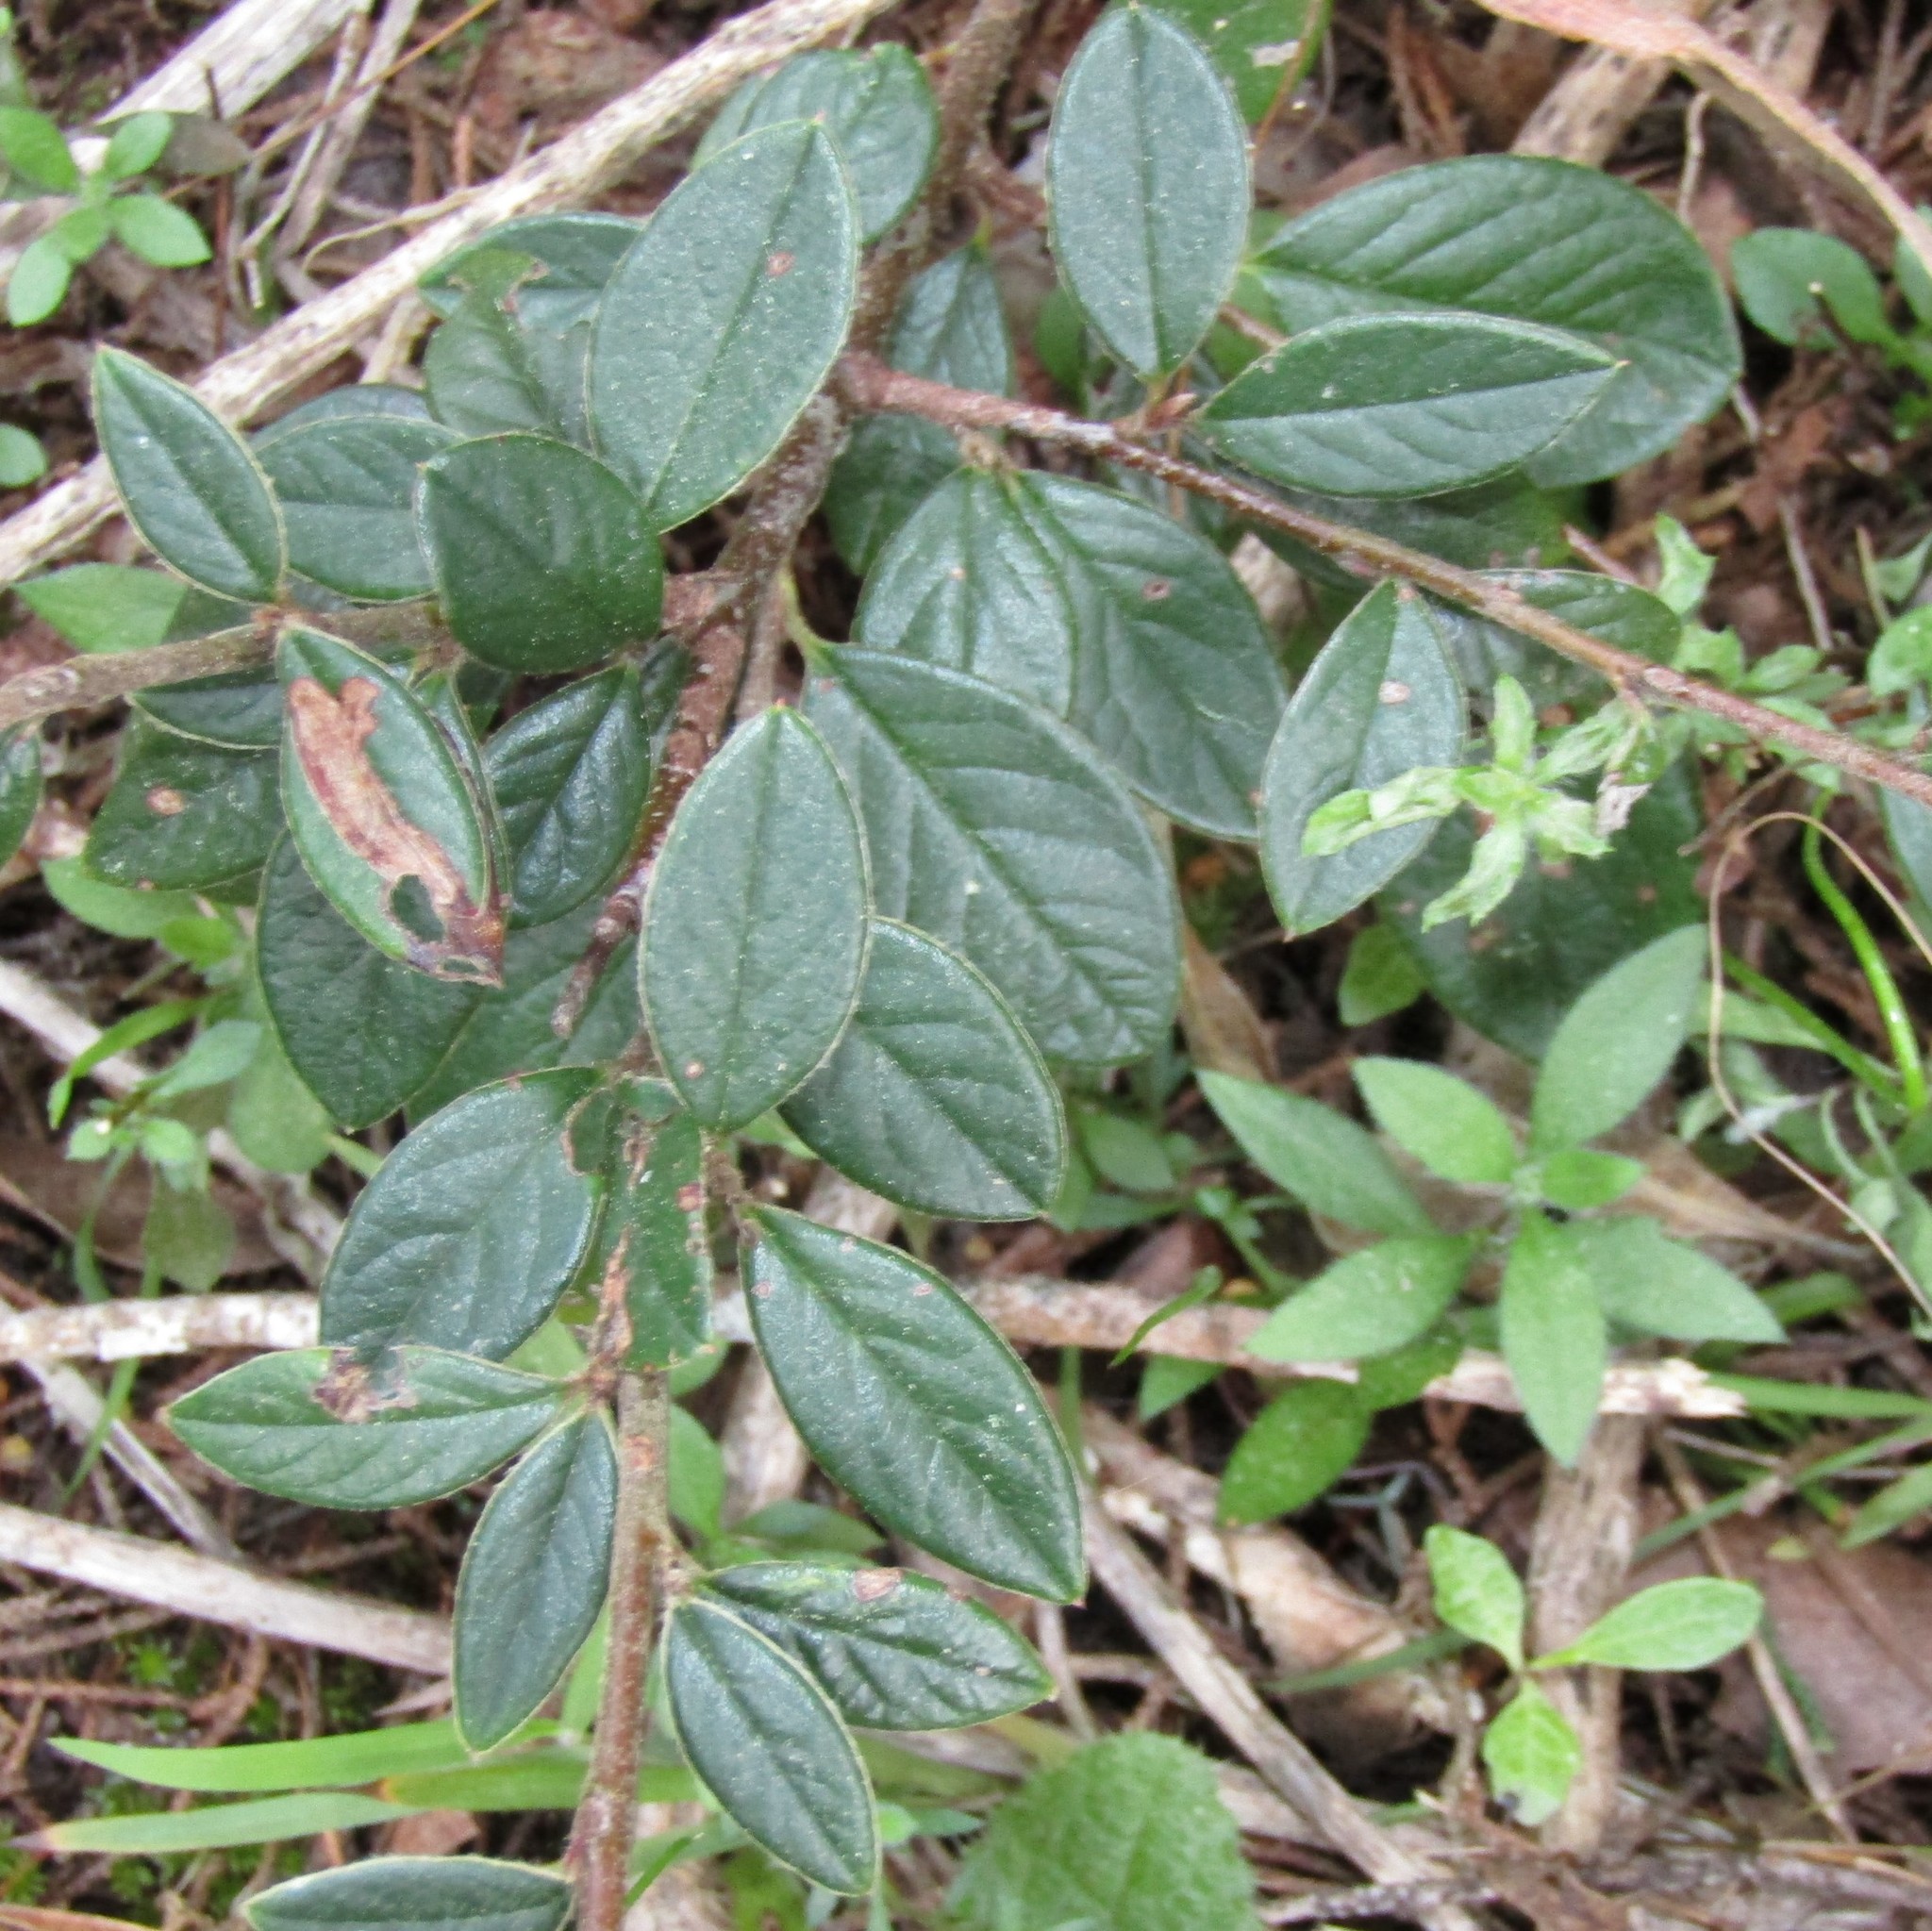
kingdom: Plantae
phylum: Tracheophyta
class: Magnoliopsida
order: Rosales
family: Rosaceae
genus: Cotoneaster
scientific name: Cotoneaster simonsii
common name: Himalayan cotoneaster
